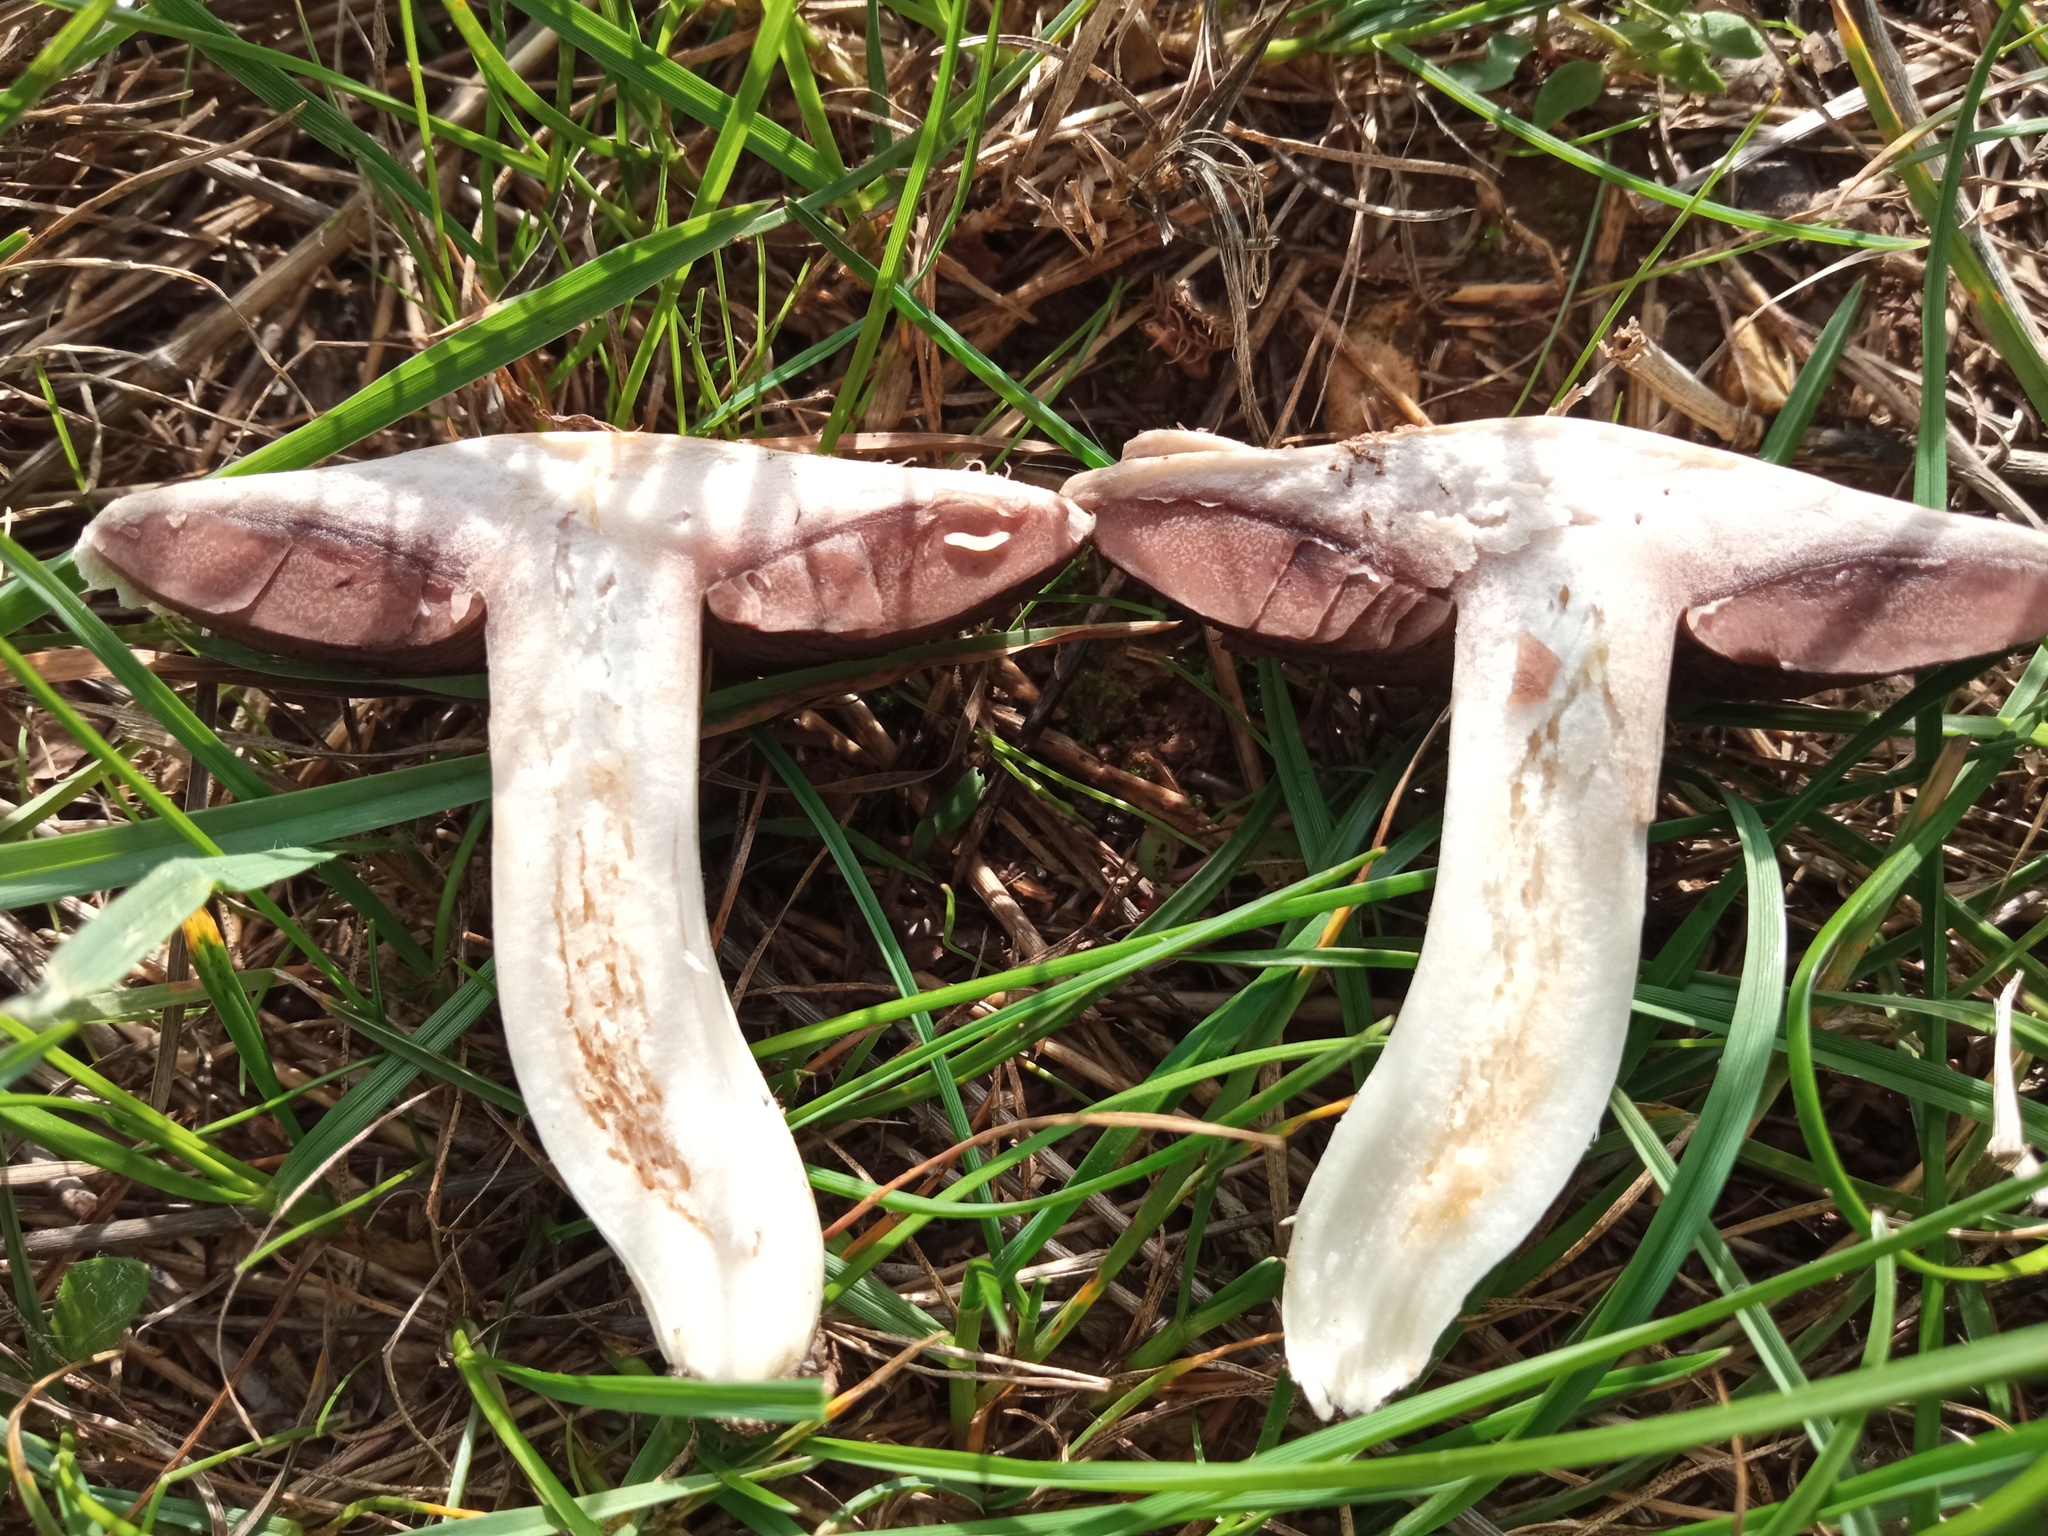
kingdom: Fungi
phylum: Basidiomycota
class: Agaricomycetes
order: Agaricales
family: Agaricaceae
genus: Agaricus
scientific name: Agaricus campestris
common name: Field mushroom
